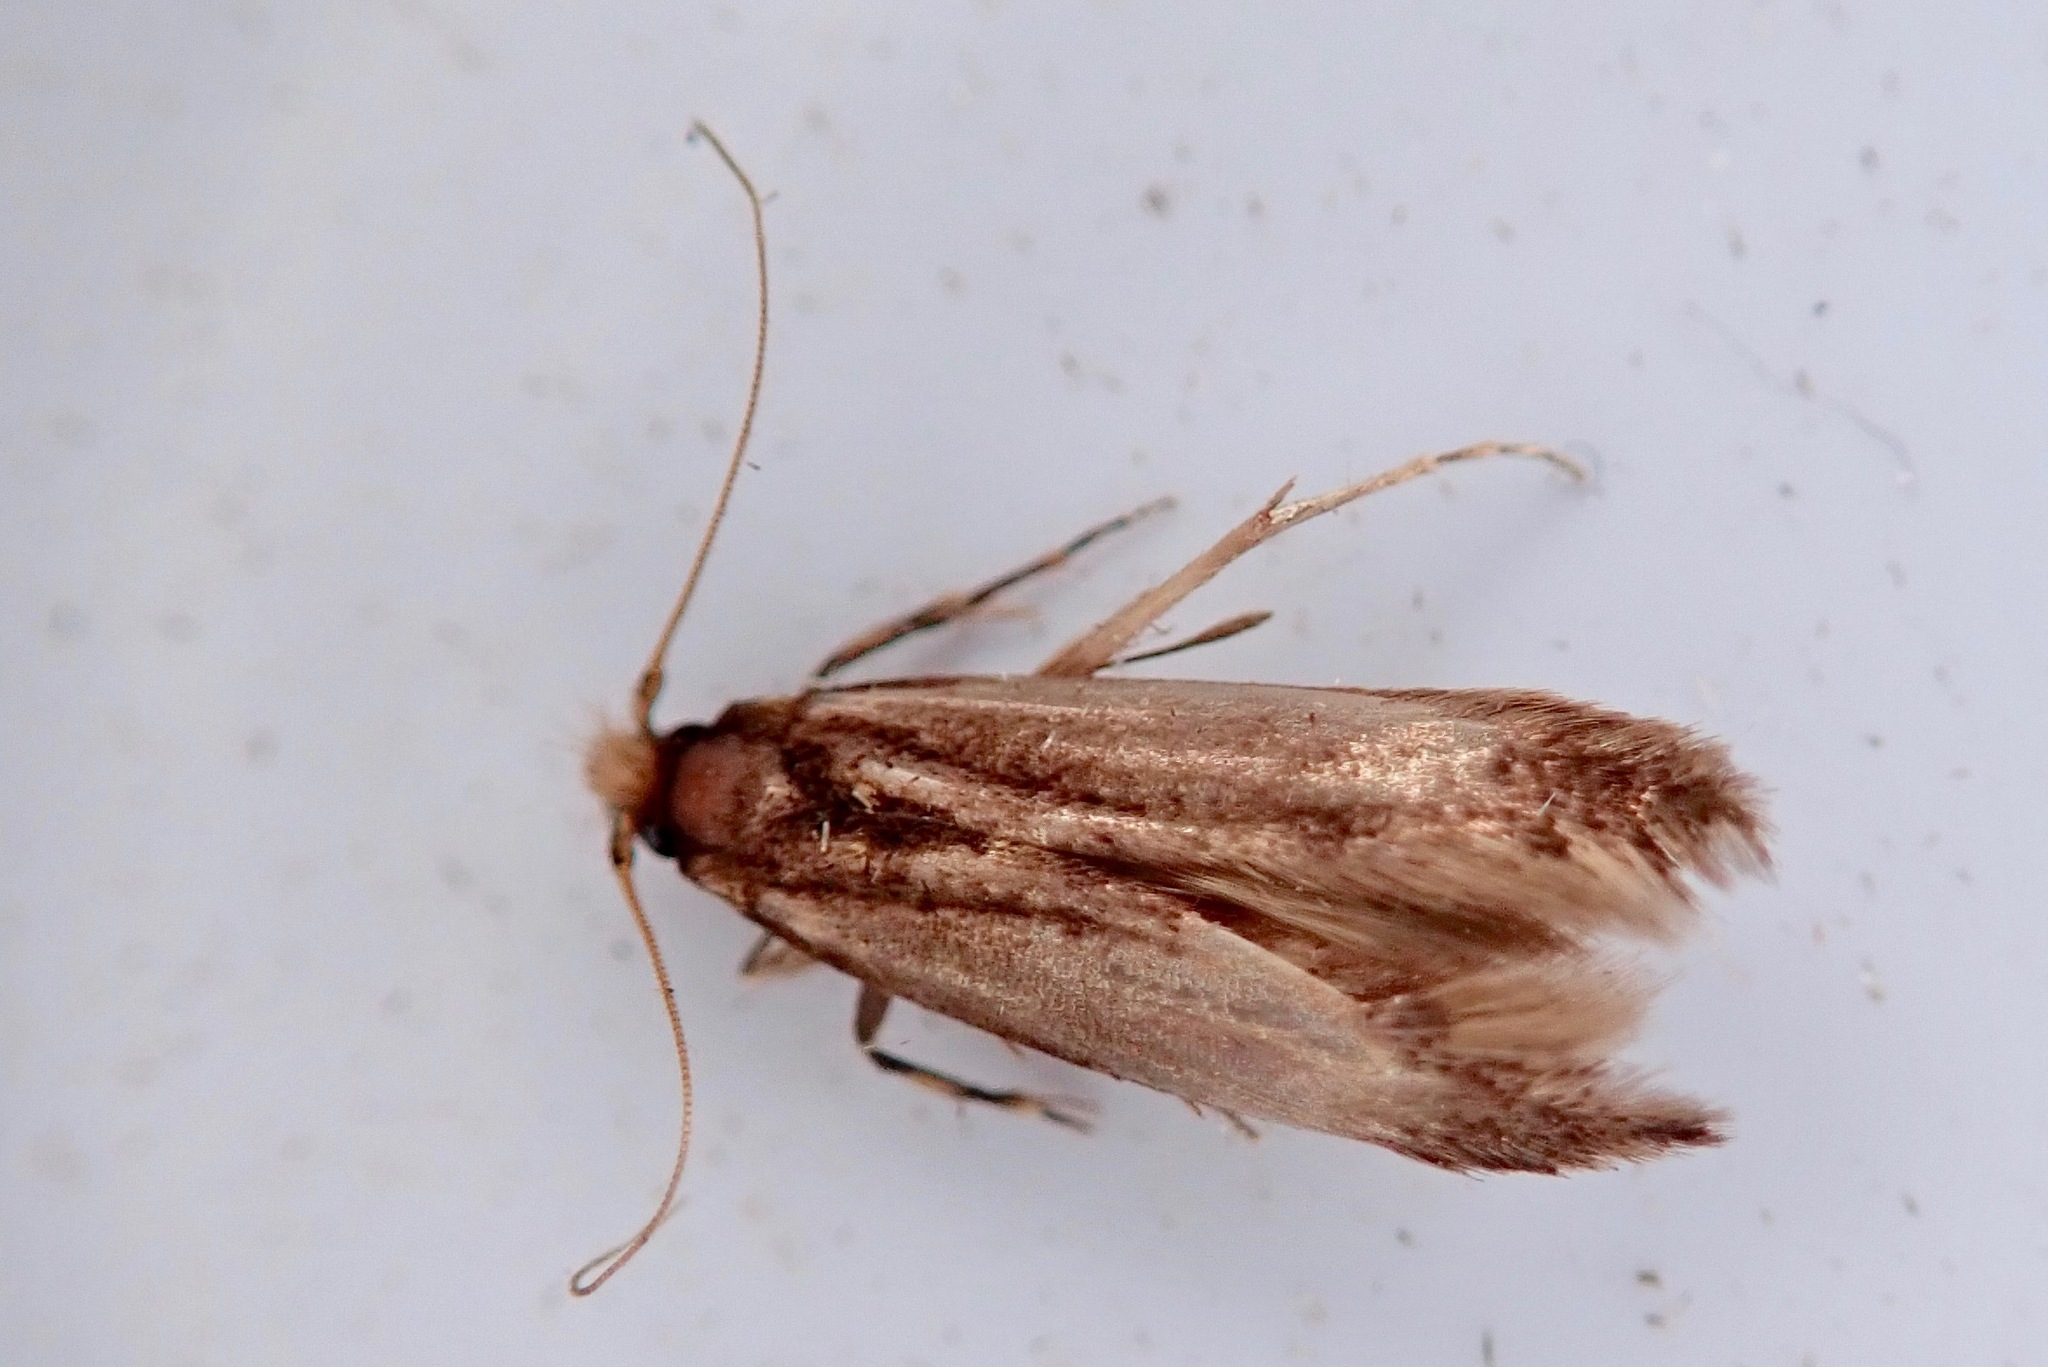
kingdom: Animalia
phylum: Arthropoda
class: Insecta
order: Lepidoptera
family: Tineidae
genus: Opogona
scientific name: Opogona omoscopa
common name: Moth
